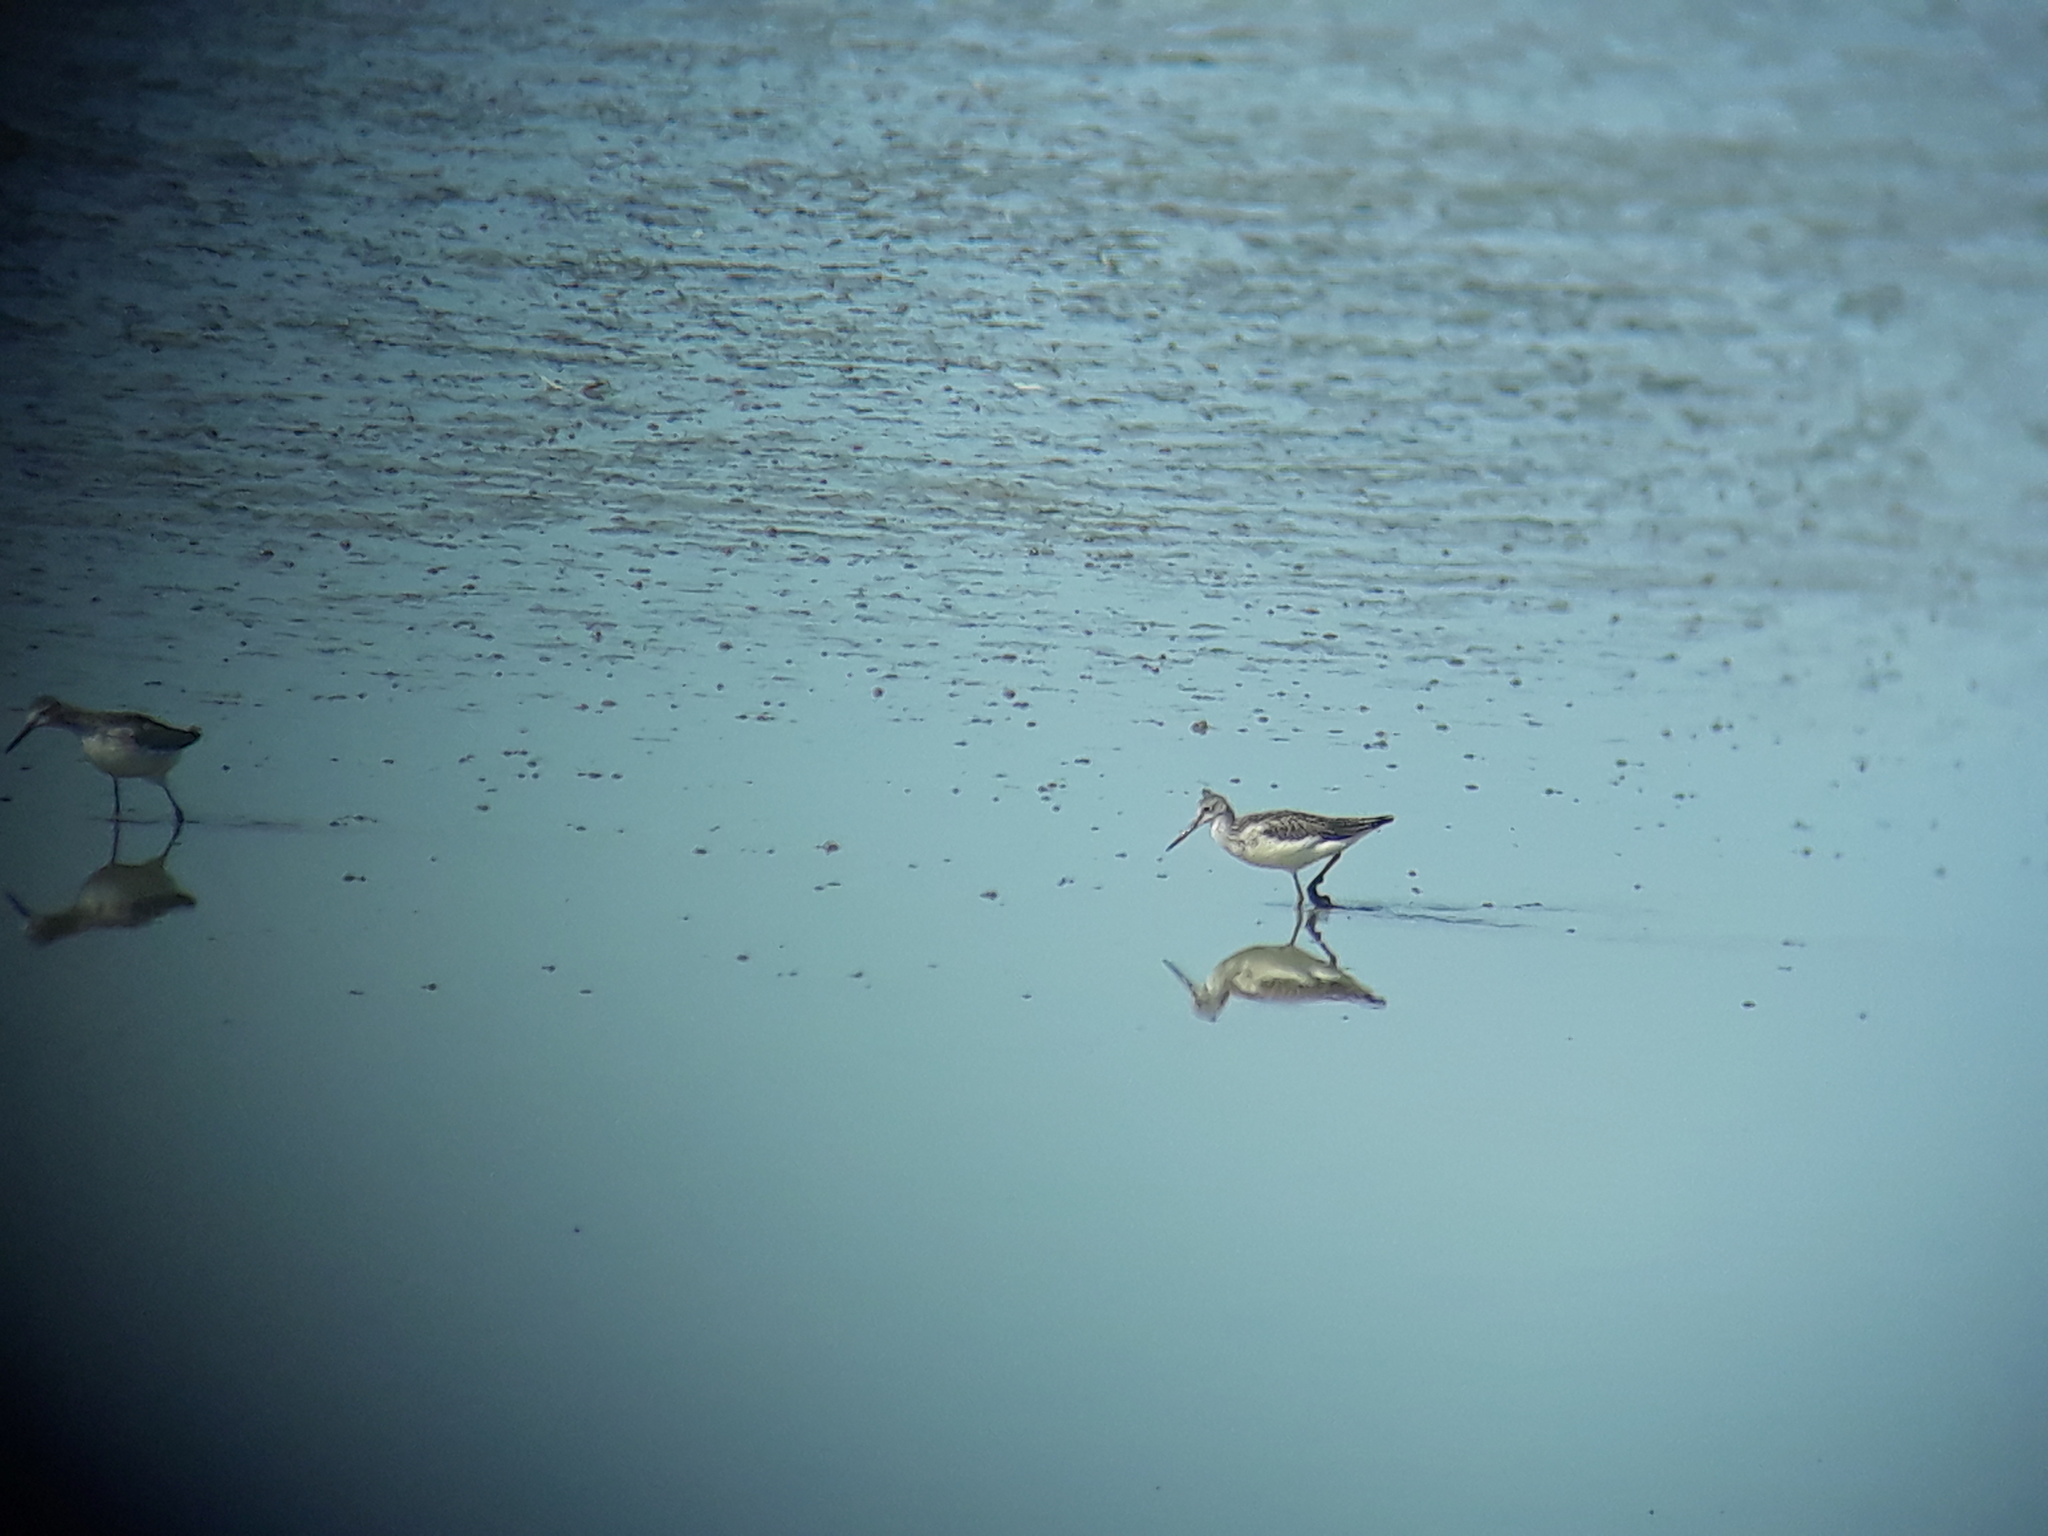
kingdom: Animalia
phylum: Chordata
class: Aves
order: Charadriiformes
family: Scolopacidae
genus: Tringa
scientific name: Tringa nebularia
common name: Common greenshank
